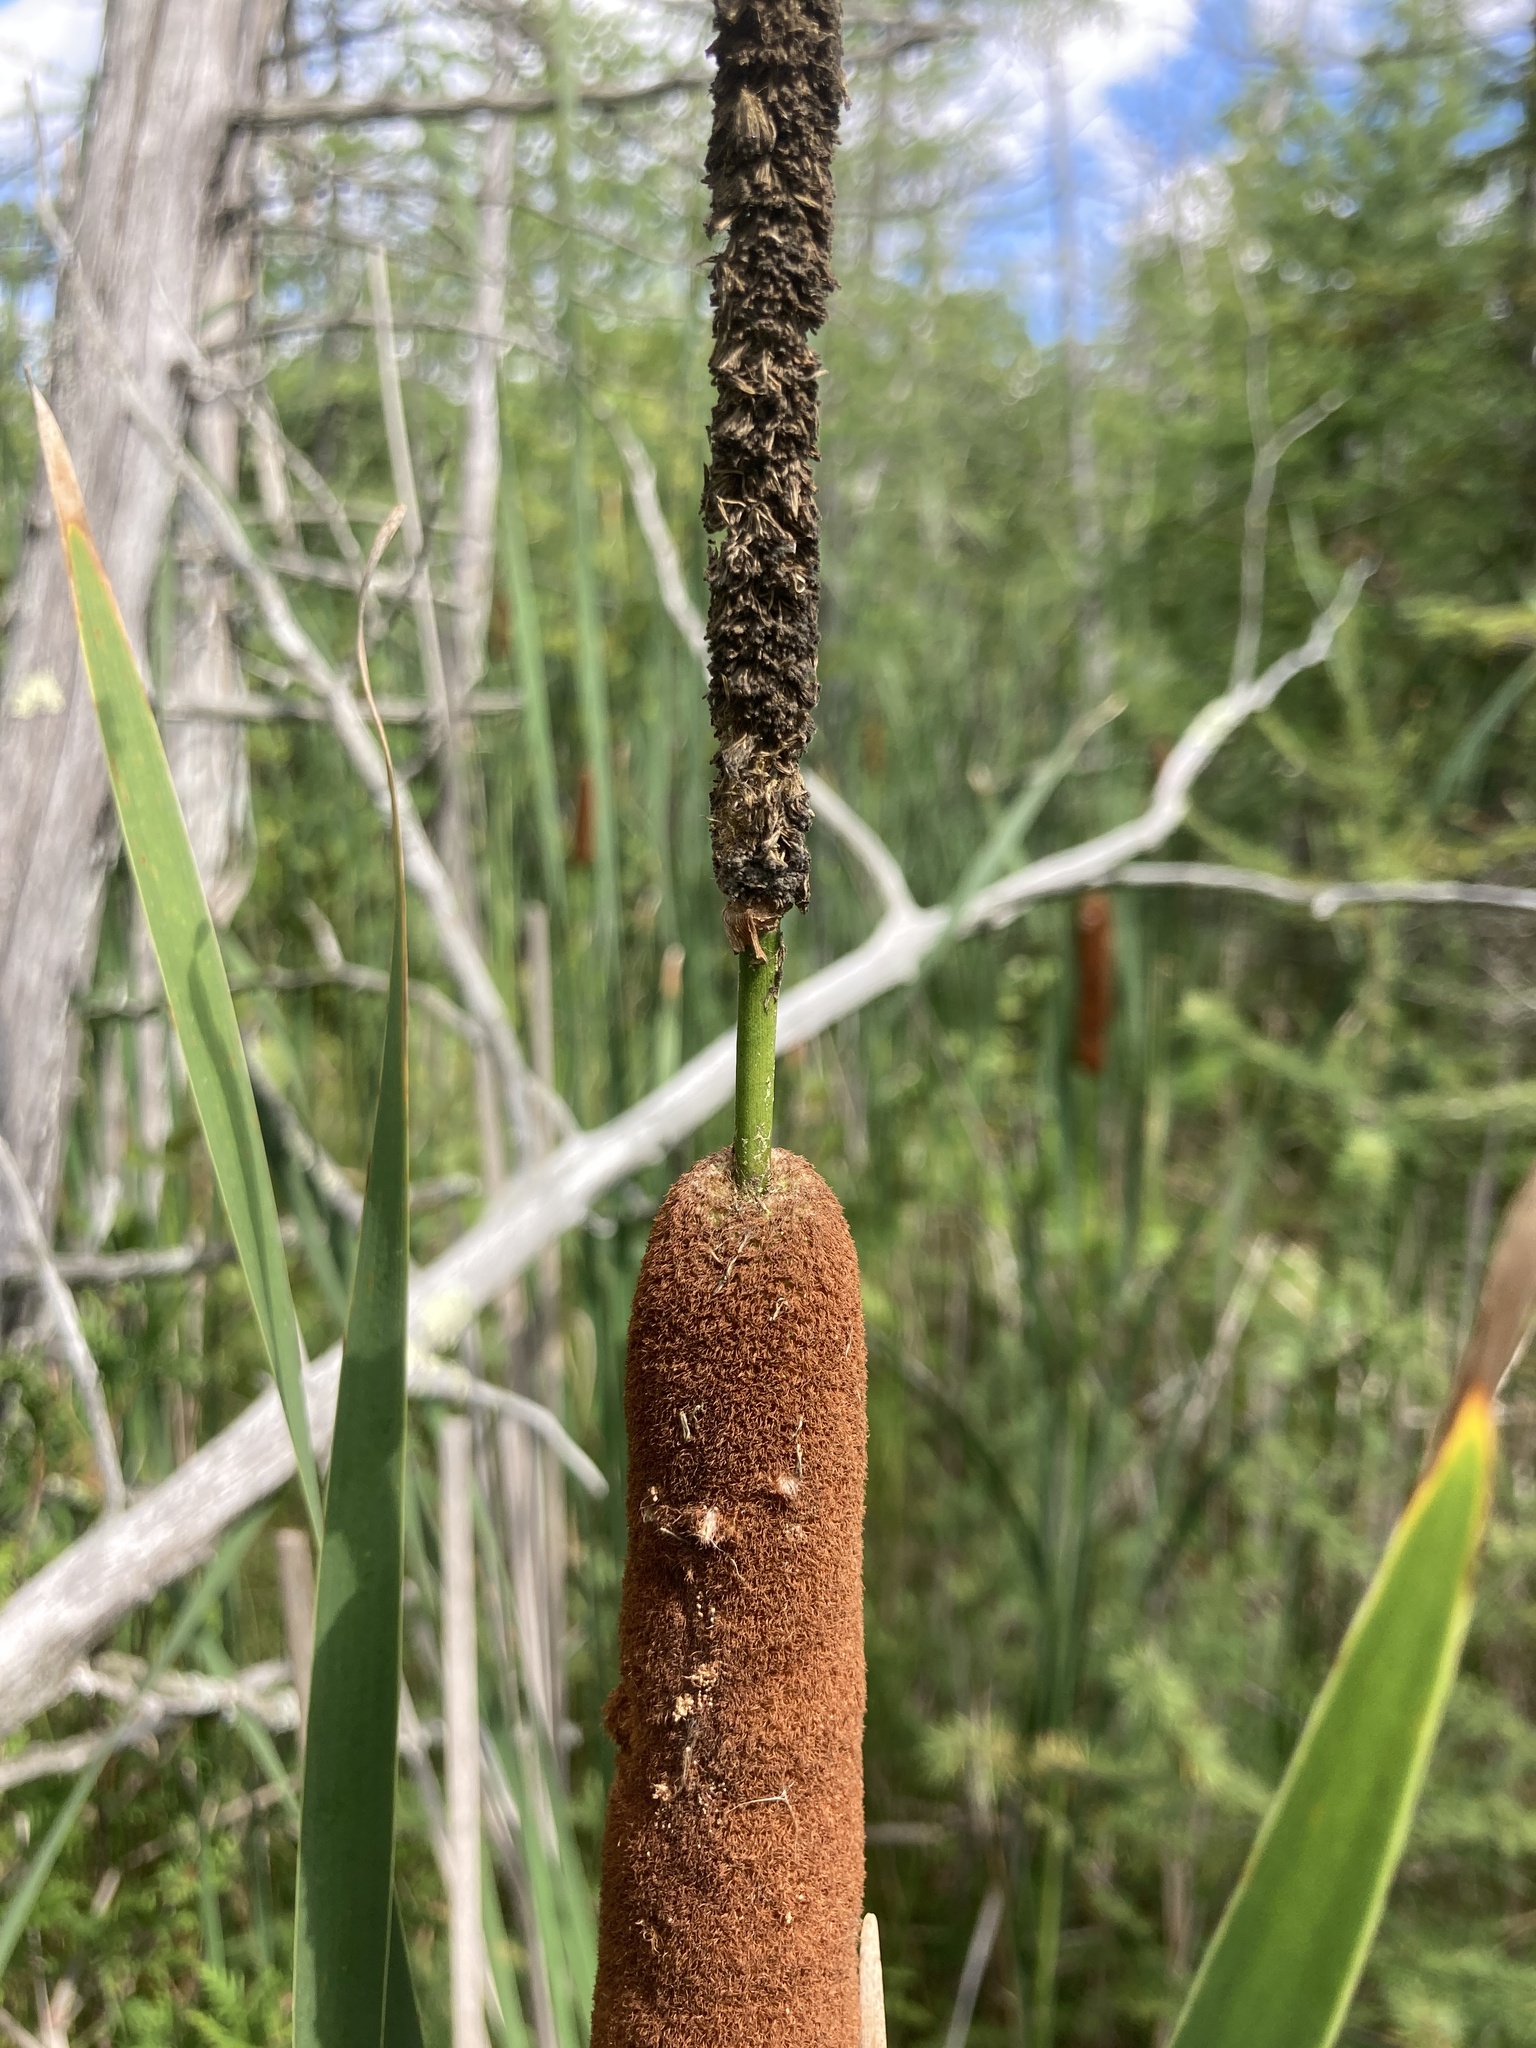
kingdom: Plantae
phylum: Tracheophyta
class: Liliopsida
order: Poales
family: Typhaceae
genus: Typha
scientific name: Typha angustifolia
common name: Lesser bulrush
